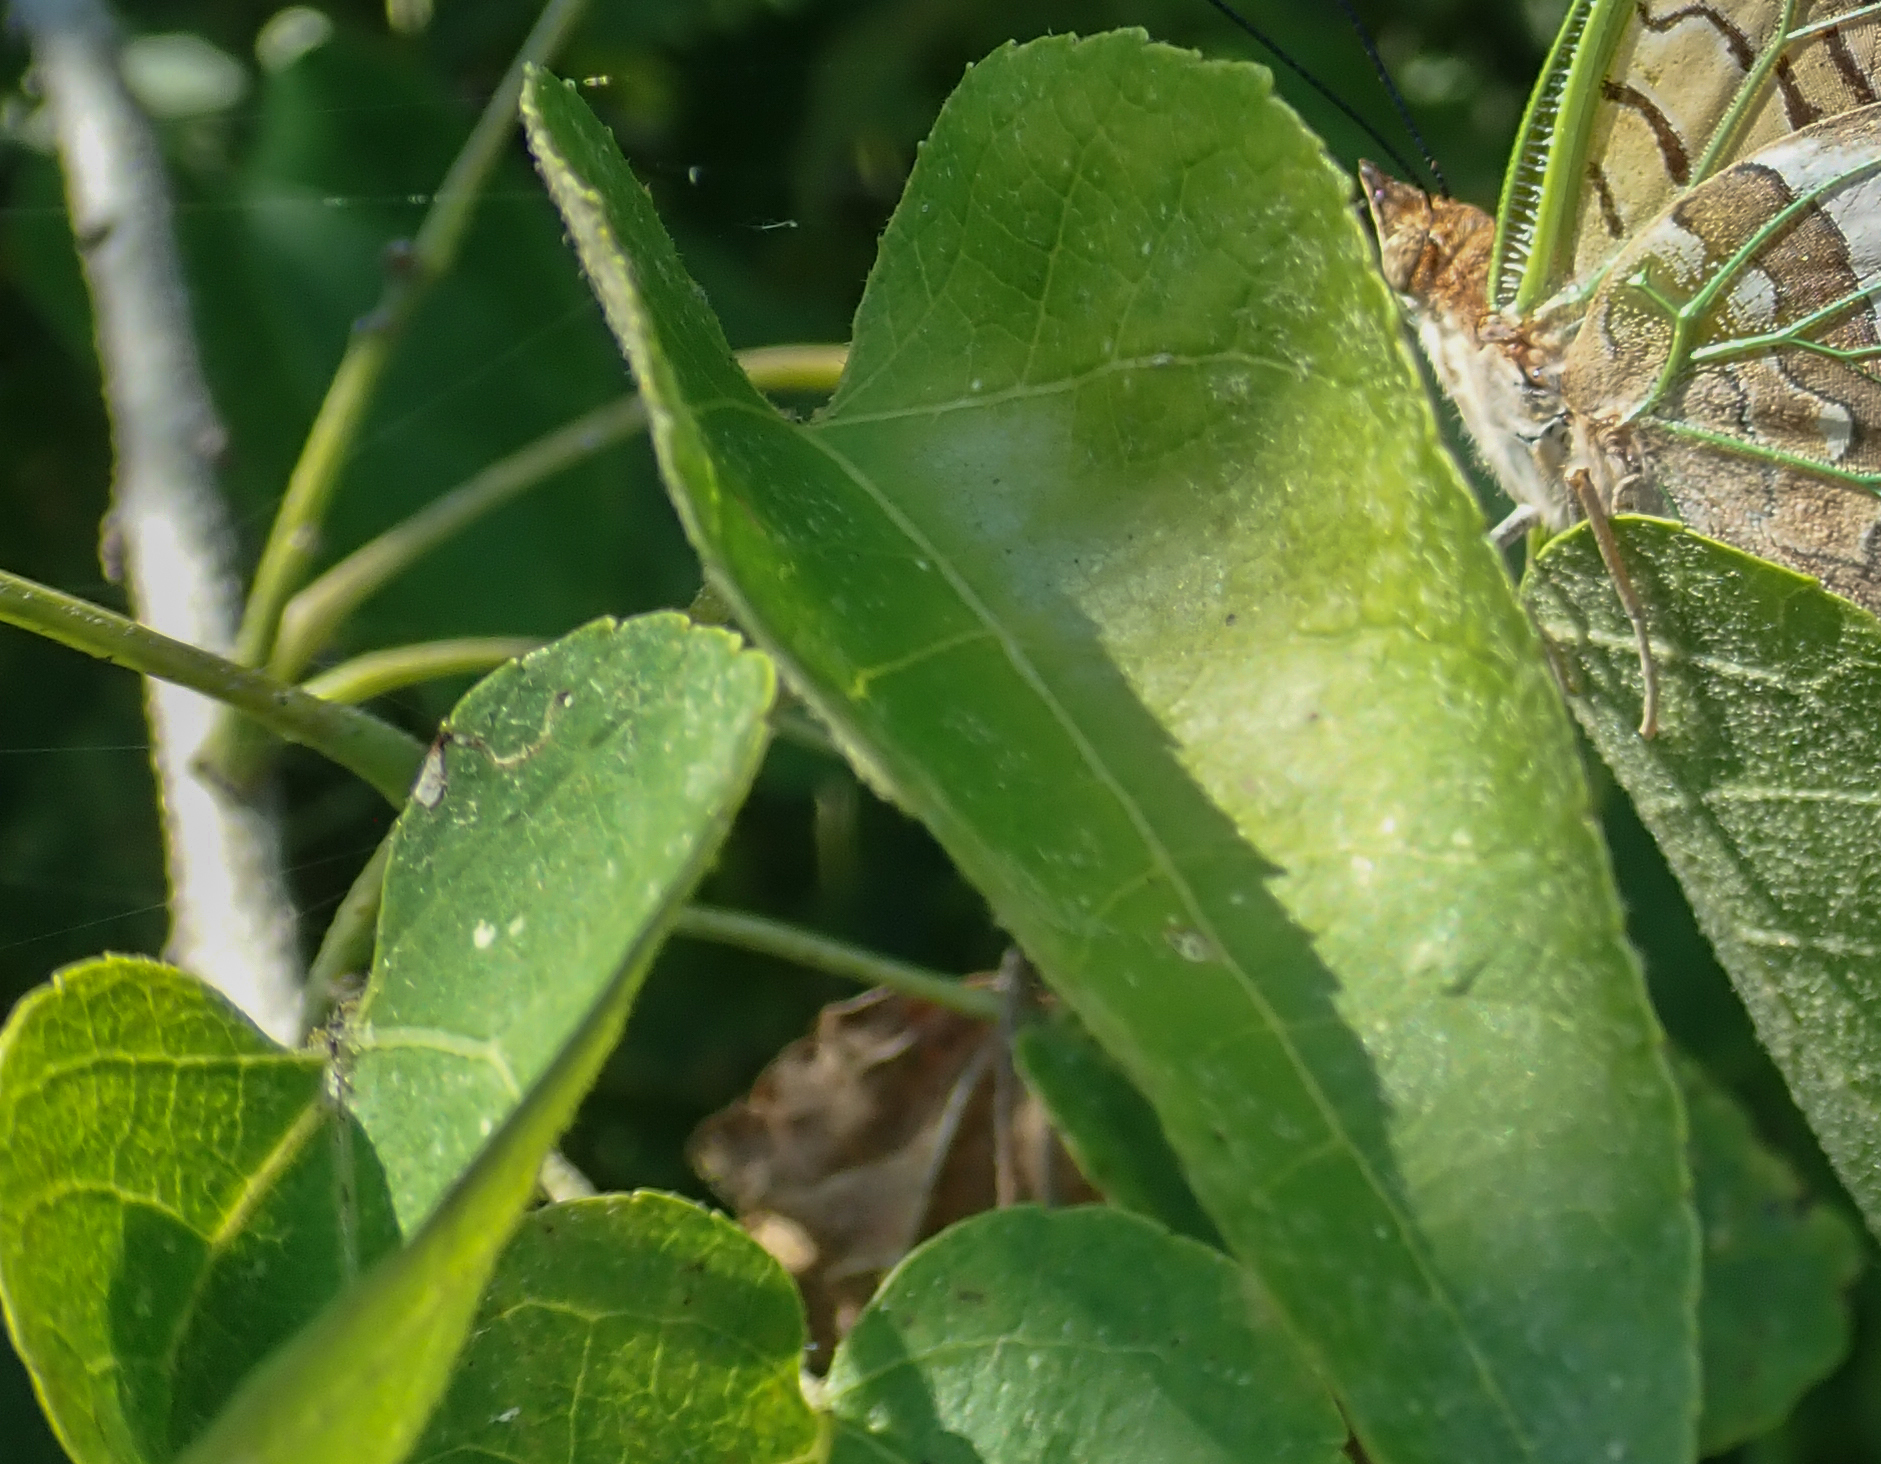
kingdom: Plantae
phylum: Tracheophyta
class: Magnoliopsida
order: Malpighiales
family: Euphorbiaceae
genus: Croton
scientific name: Croton megalobotrys
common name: Large fever berry
